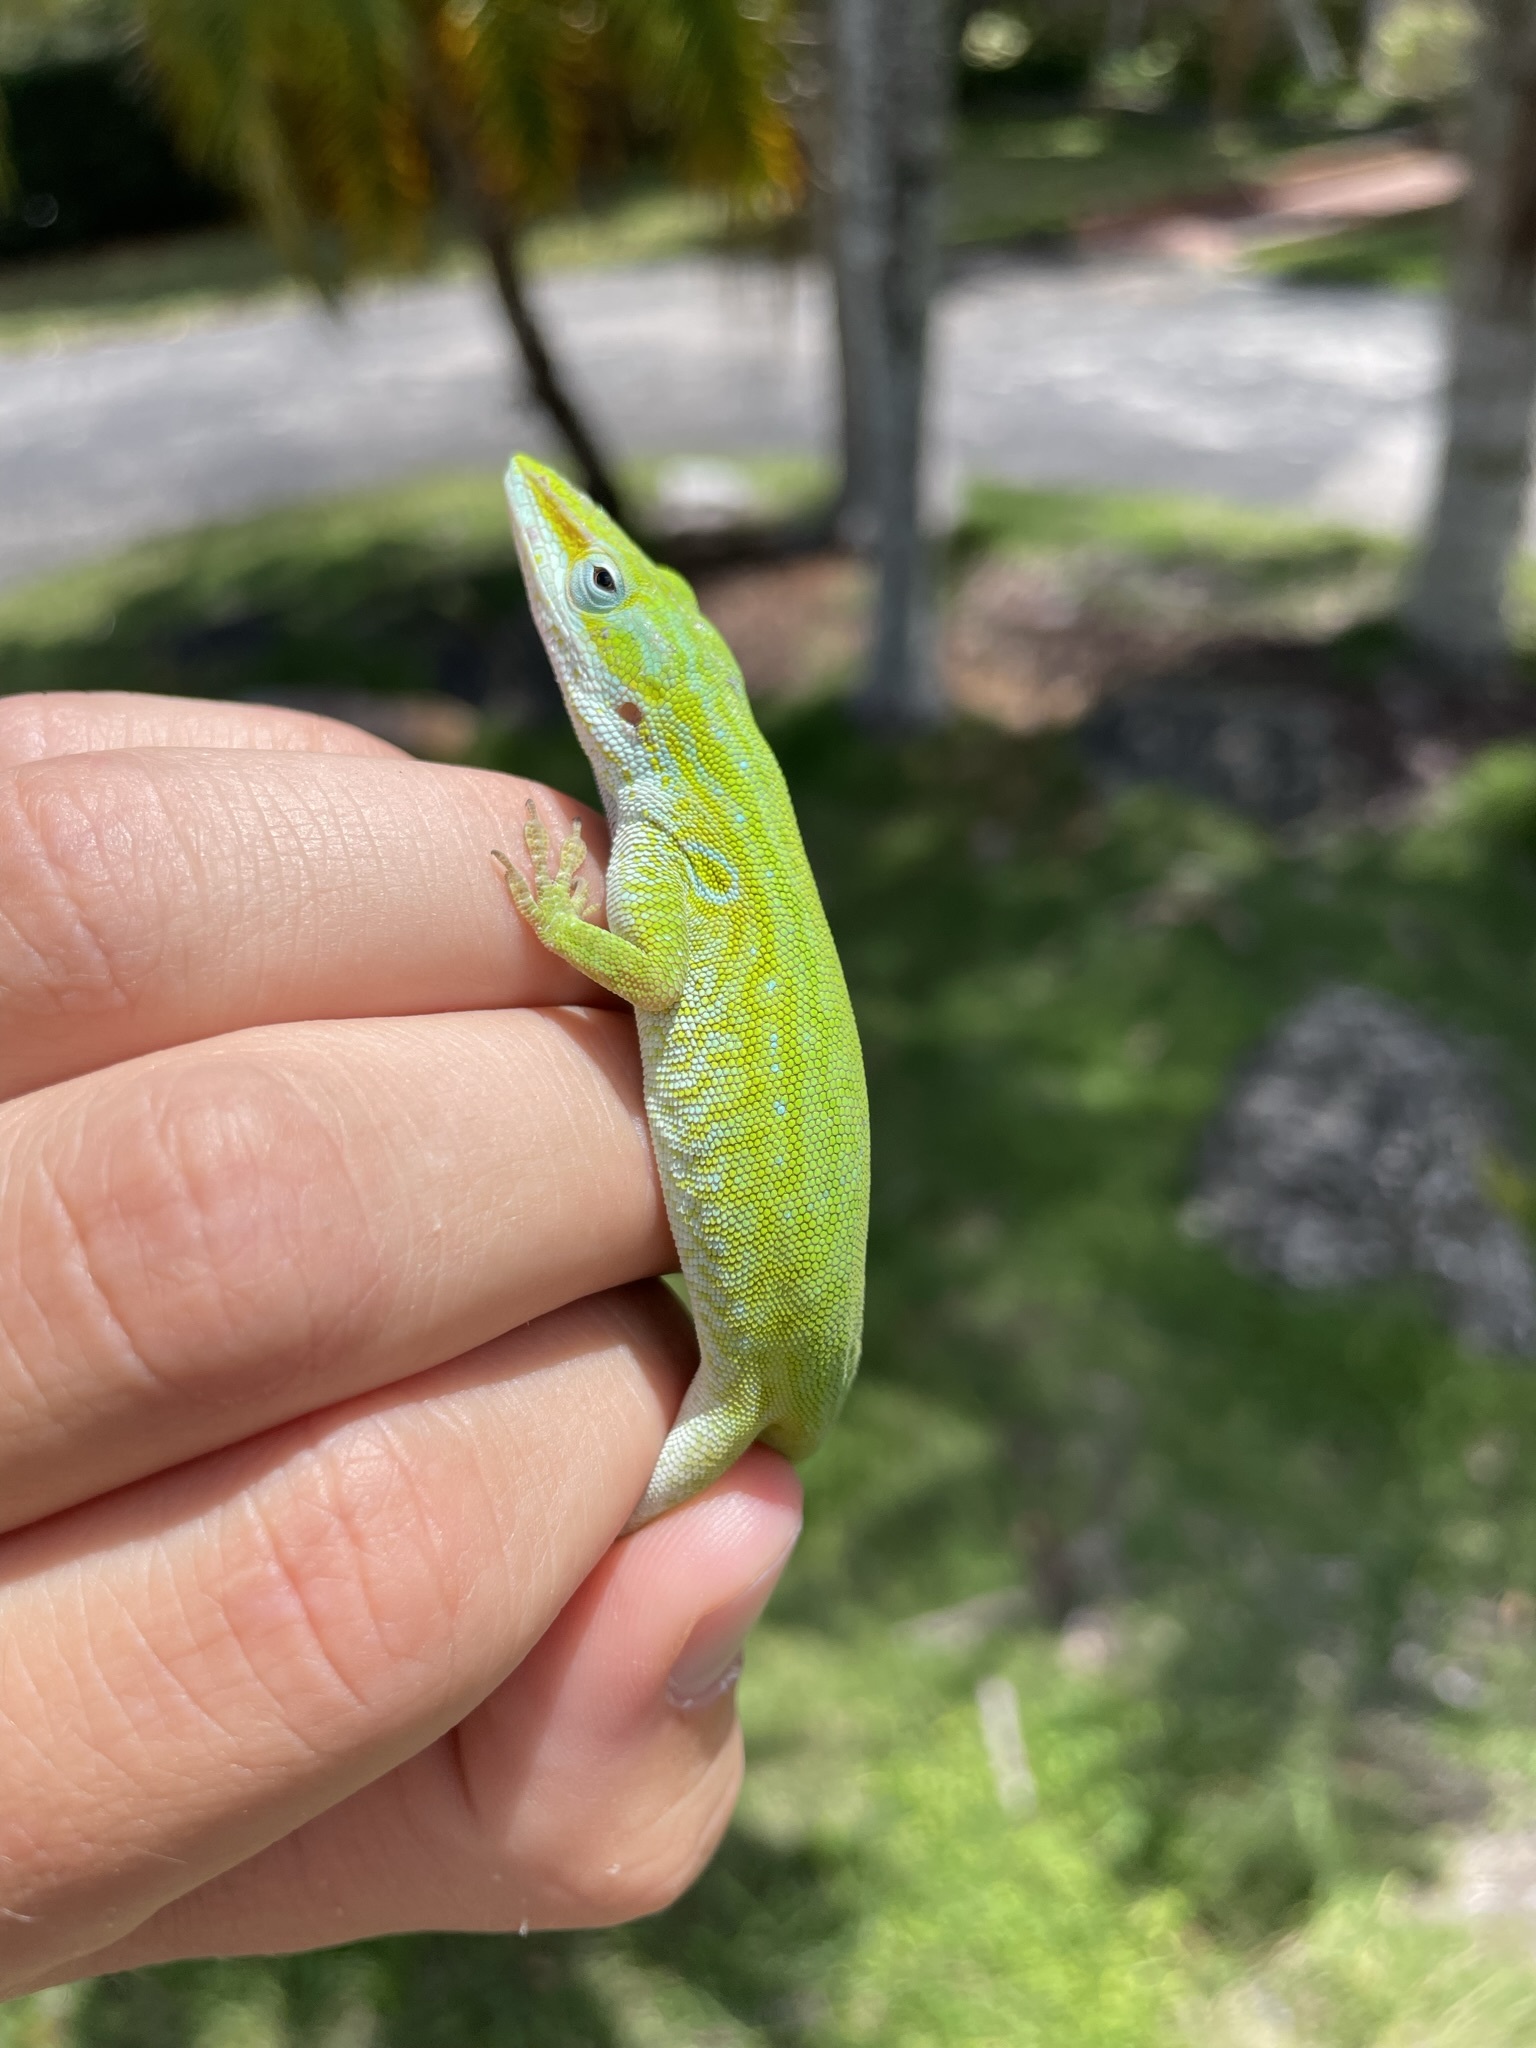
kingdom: Animalia
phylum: Chordata
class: Squamata
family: Dactyloidae
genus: Anolis
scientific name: Anolis carolinensis
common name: Green anole
